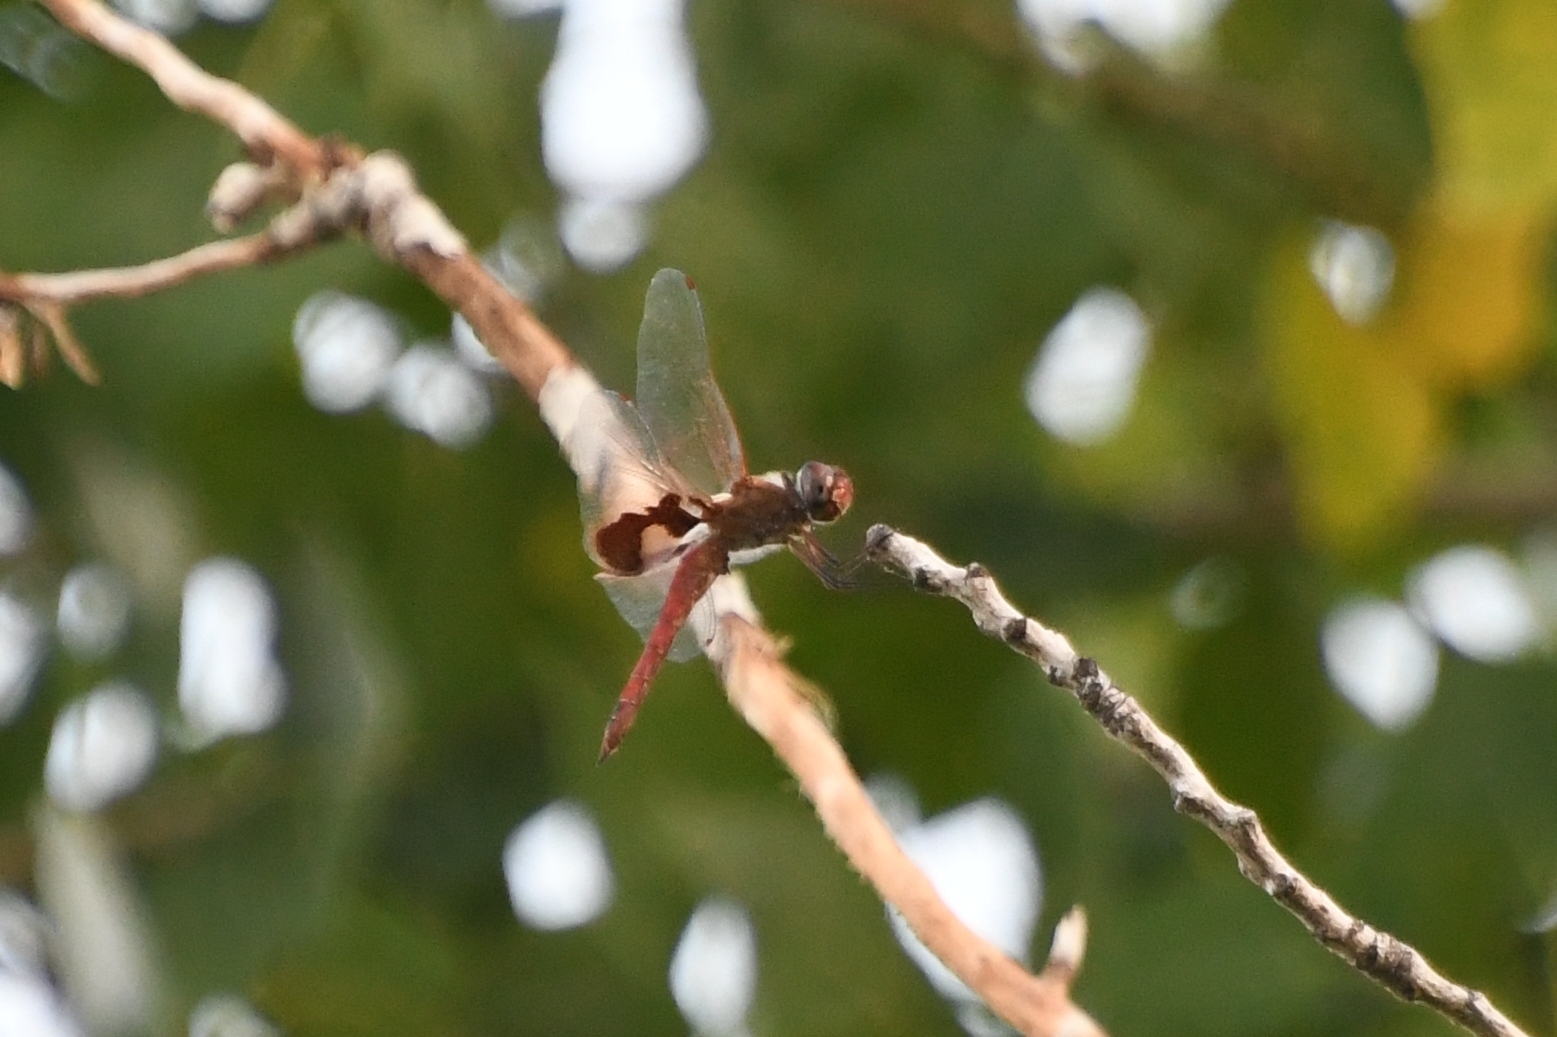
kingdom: Animalia
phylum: Arthropoda
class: Insecta
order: Odonata
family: Libellulidae
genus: Tramea
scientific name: Tramea onusta
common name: Red saddlebags
